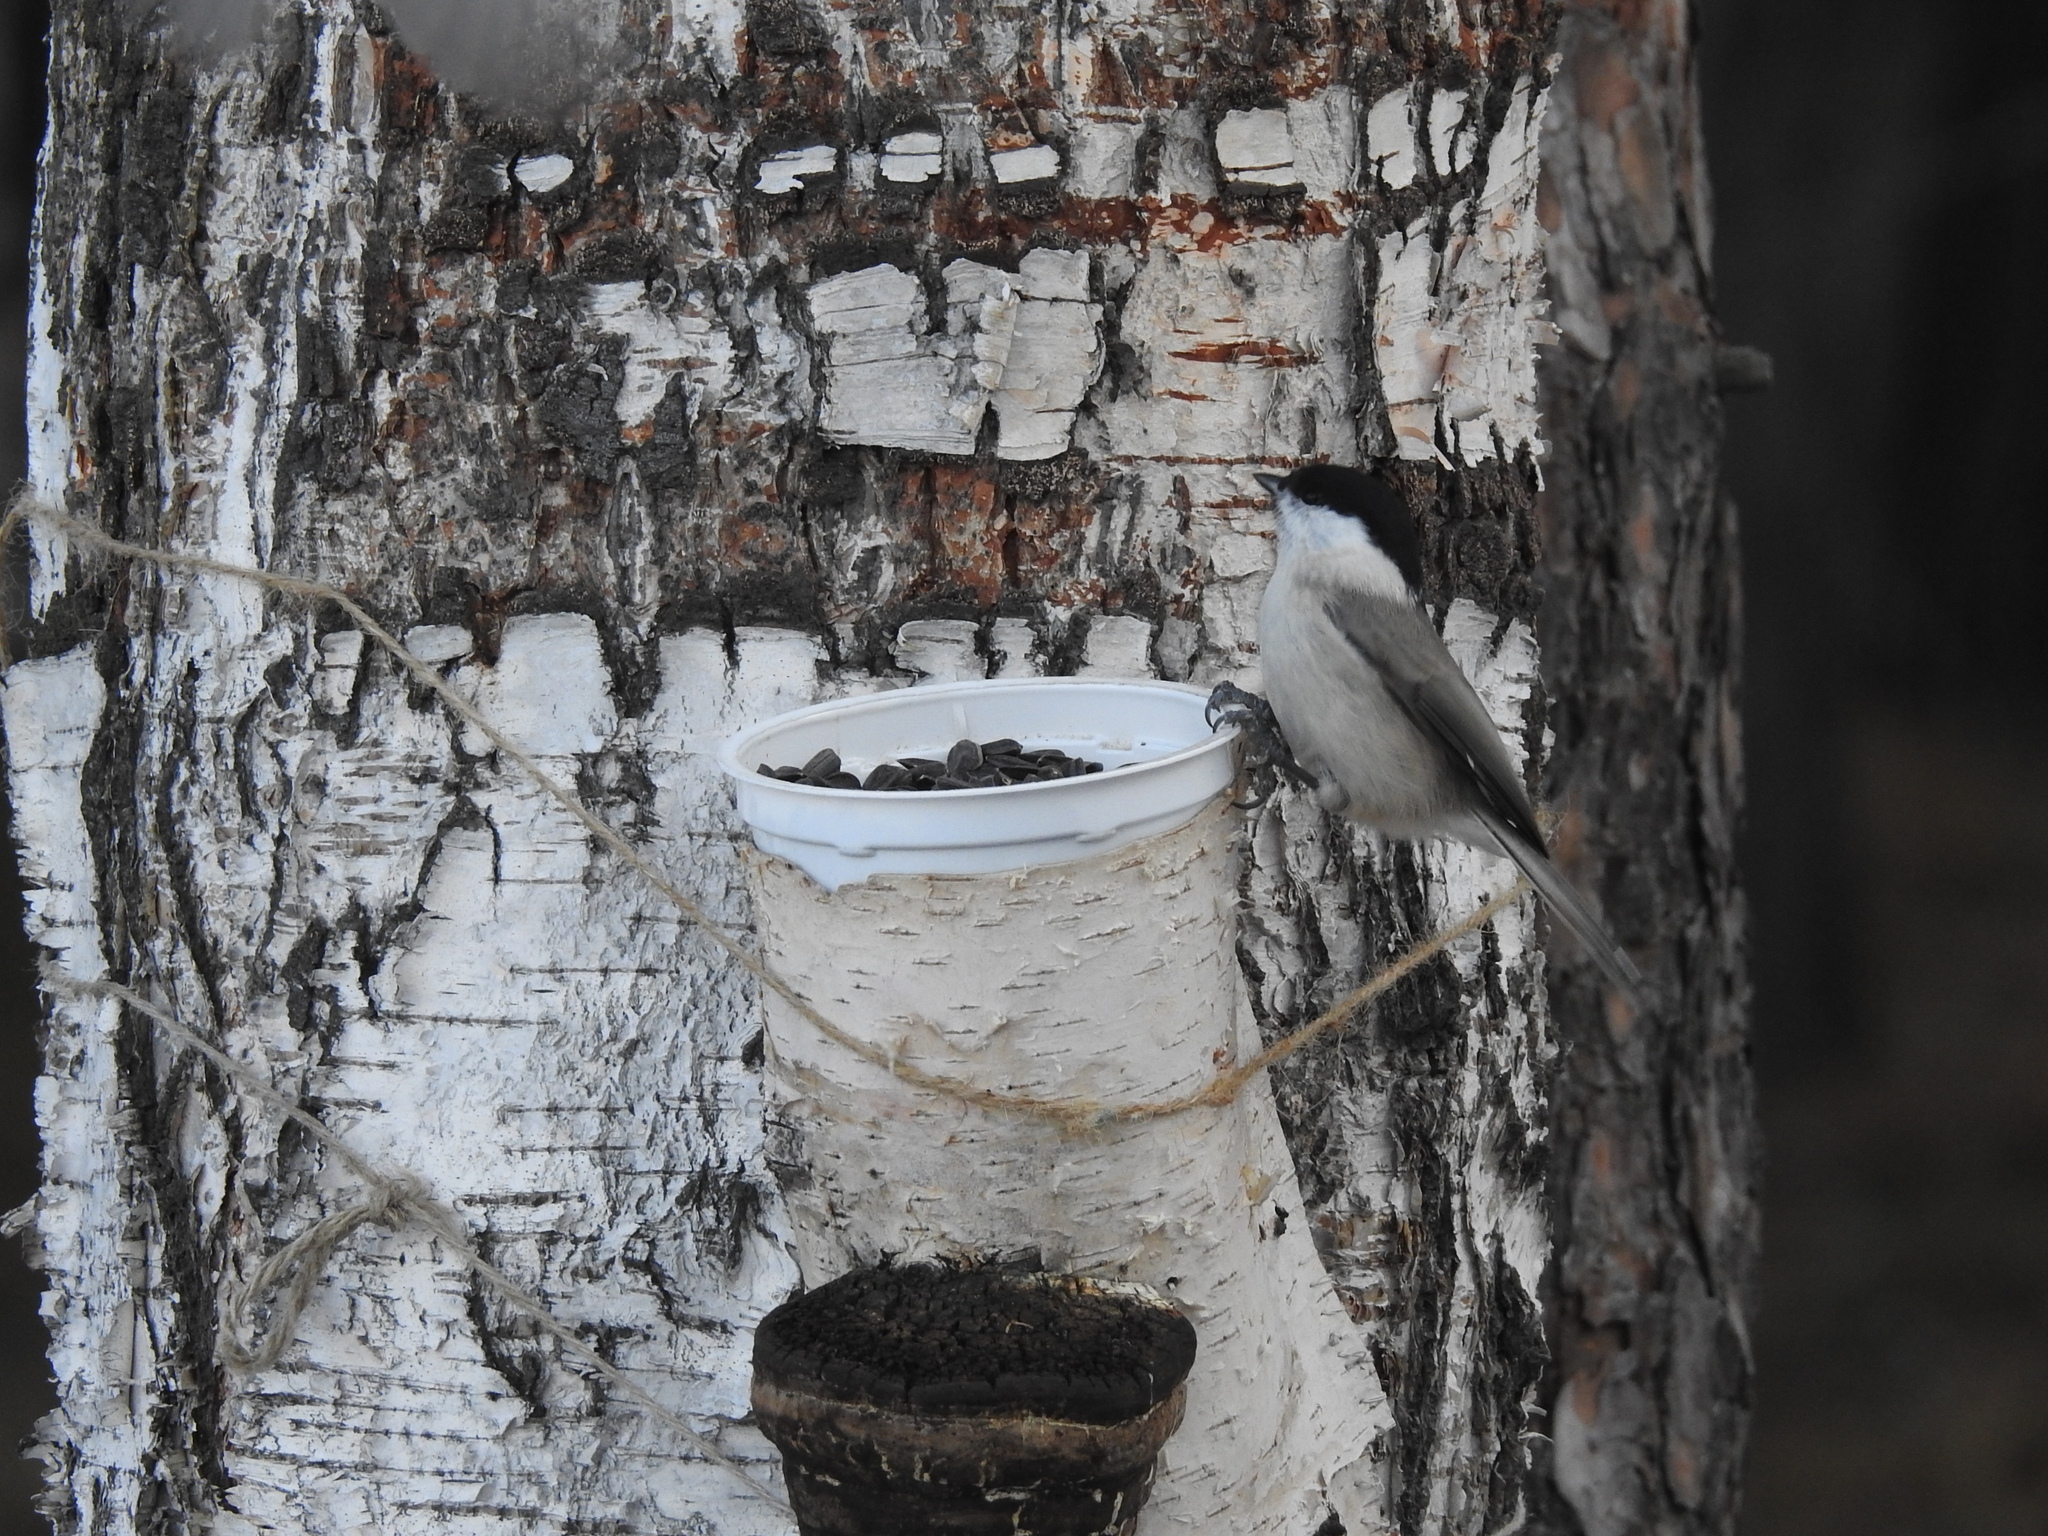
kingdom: Animalia
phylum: Chordata
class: Aves
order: Passeriformes
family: Paridae
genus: Poecile
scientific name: Poecile palustris
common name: Marsh tit
